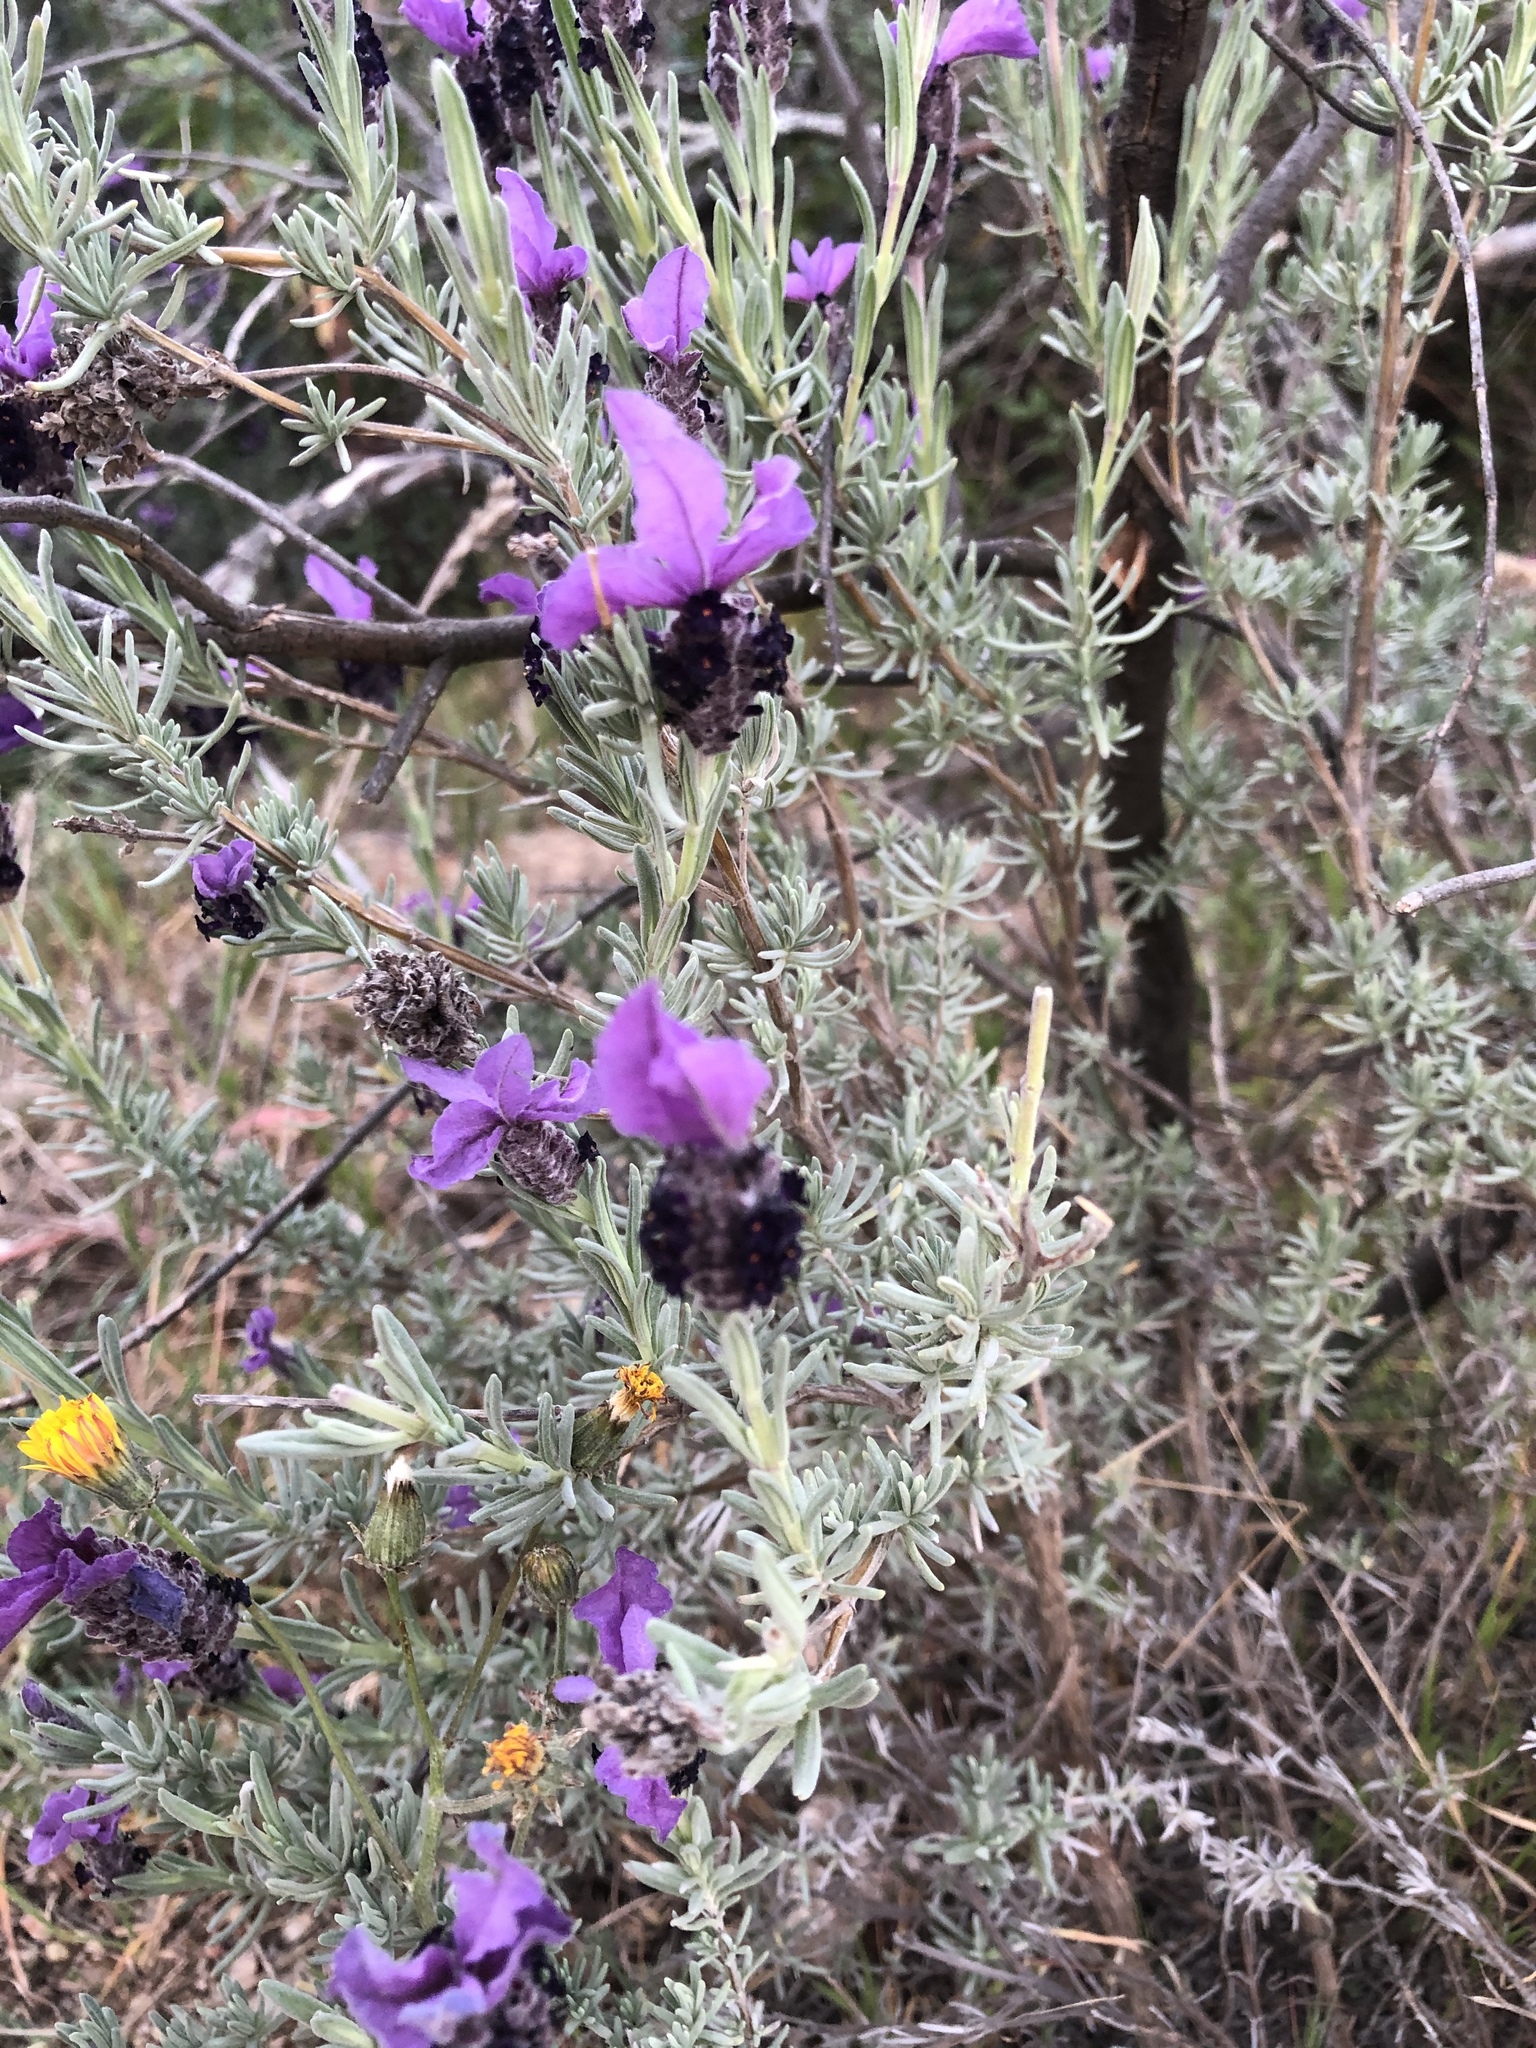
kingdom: Plantae
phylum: Tracheophyta
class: Magnoliopsida
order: Lamiales
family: Lamiaceae
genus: Lavandula
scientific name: Lavandula stoechas
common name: French lavender
